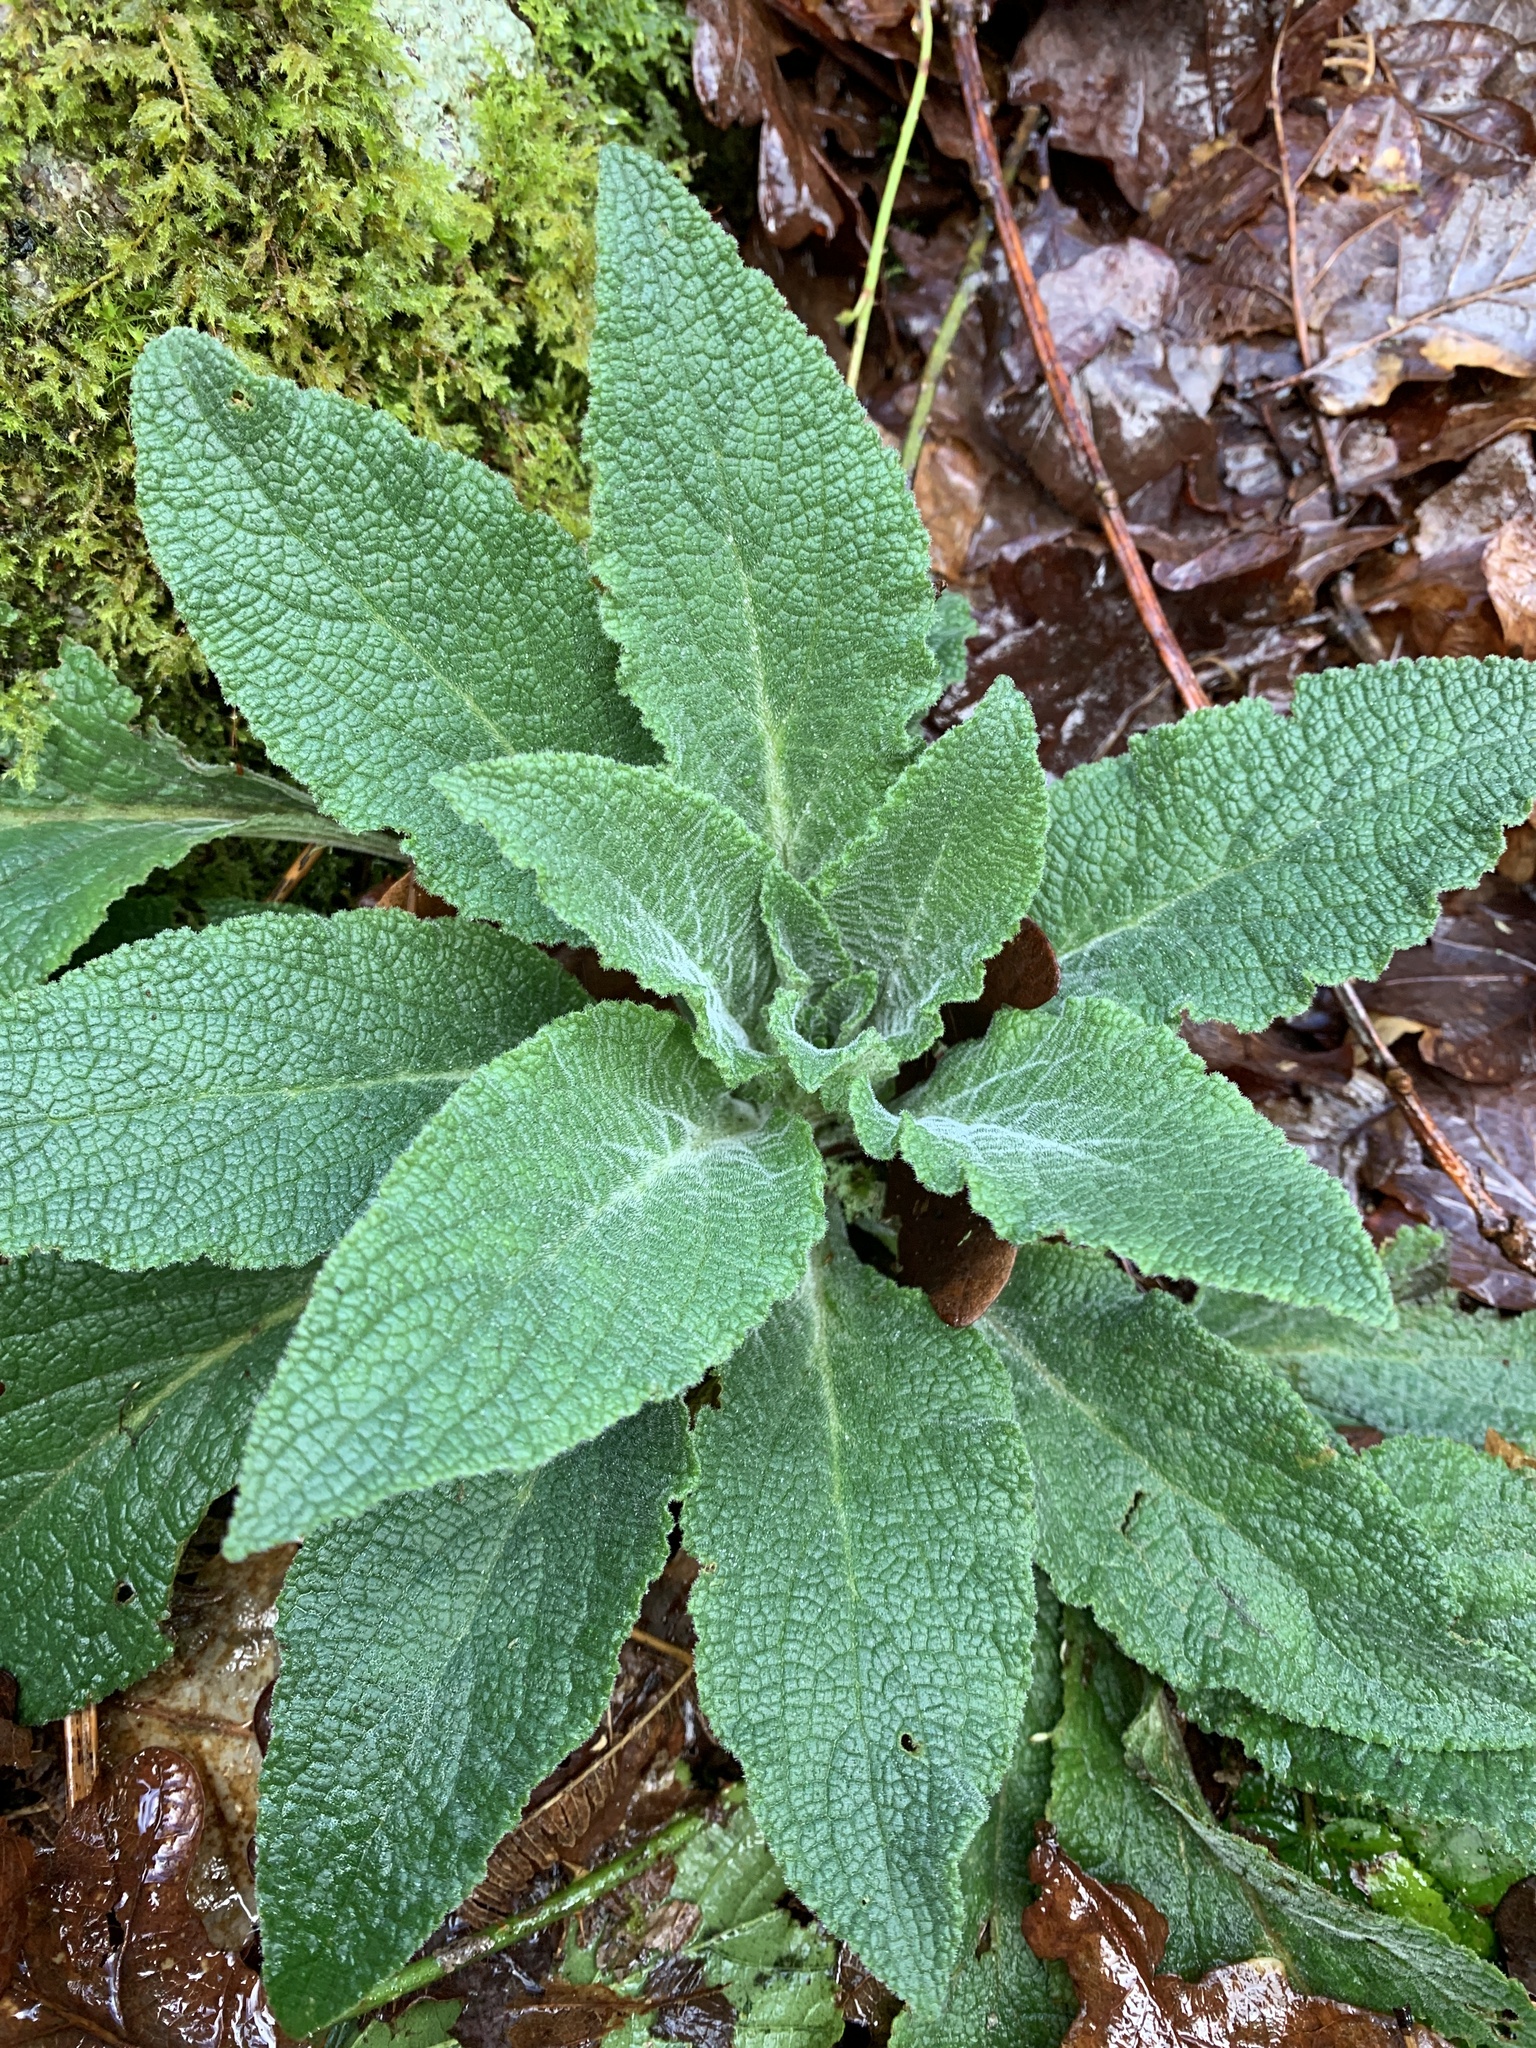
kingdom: Plantae
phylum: Tracheophyta
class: Magnoliopsida
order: Lamiales
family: Plantaginaceae
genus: Digitalis
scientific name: Digitalis purpurea
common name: Foxglove
